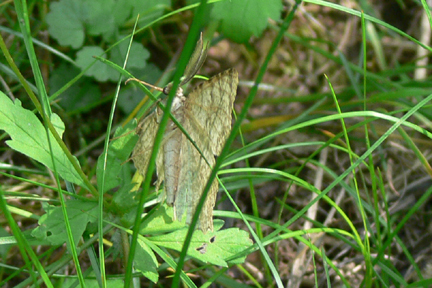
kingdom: Animalia
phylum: Arthropoda
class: Insecta
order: Lepidoptera
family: Geometridae
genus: Epimecis
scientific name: Epimecis hortaria
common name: Tulip-tree beauty
